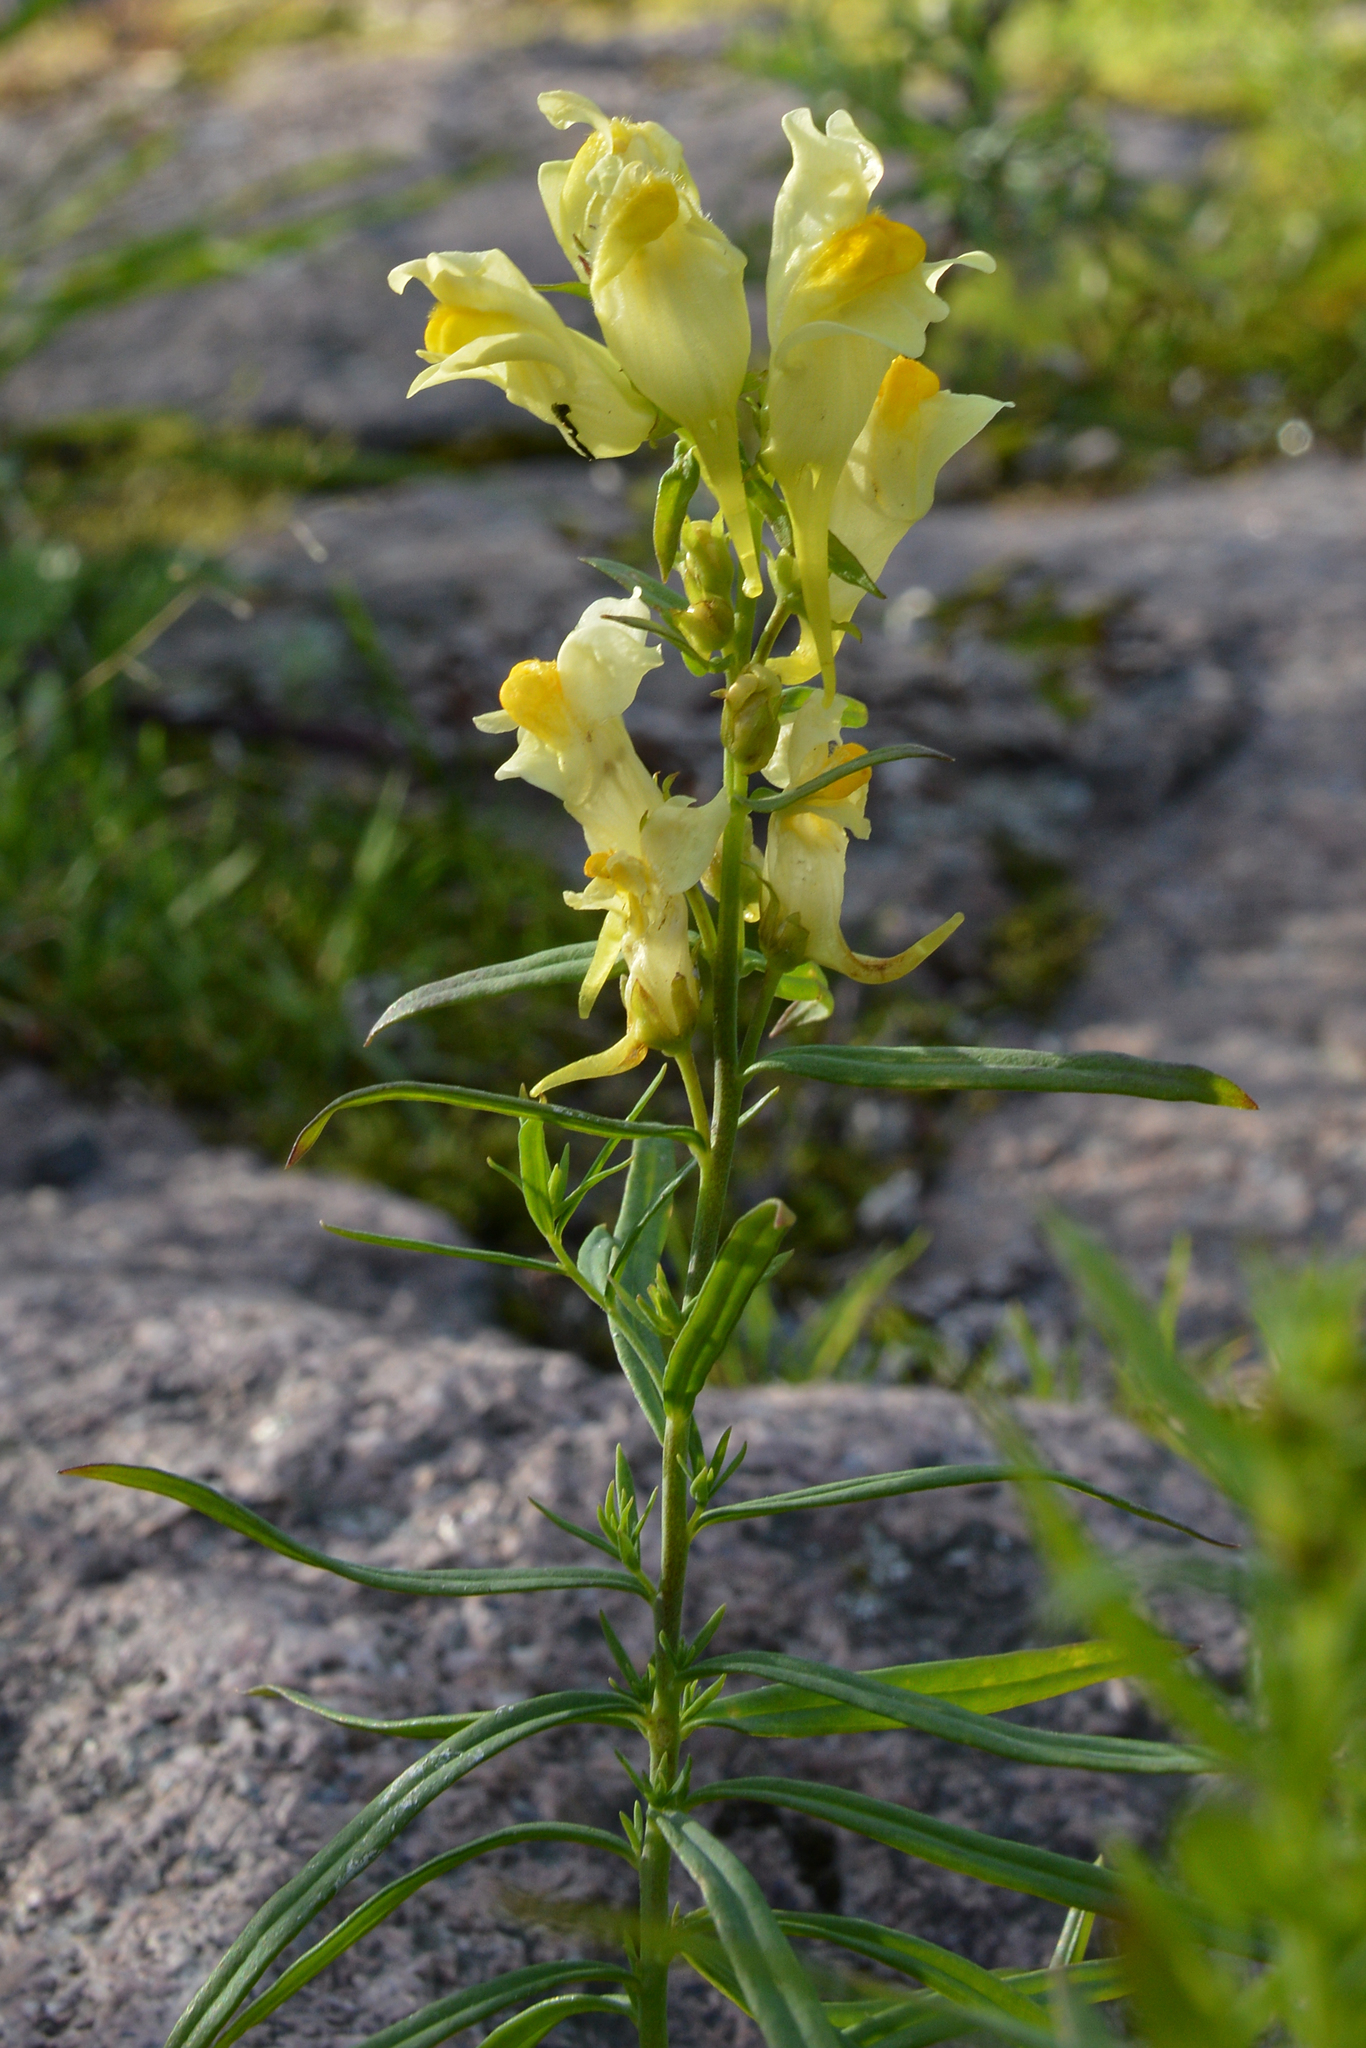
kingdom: Plantae
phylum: Tracheophyta
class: Magnoliopsida
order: Lamiales
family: Plantaginaceae
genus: Linaria
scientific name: Linaria vulgaris
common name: Butter and eggs
